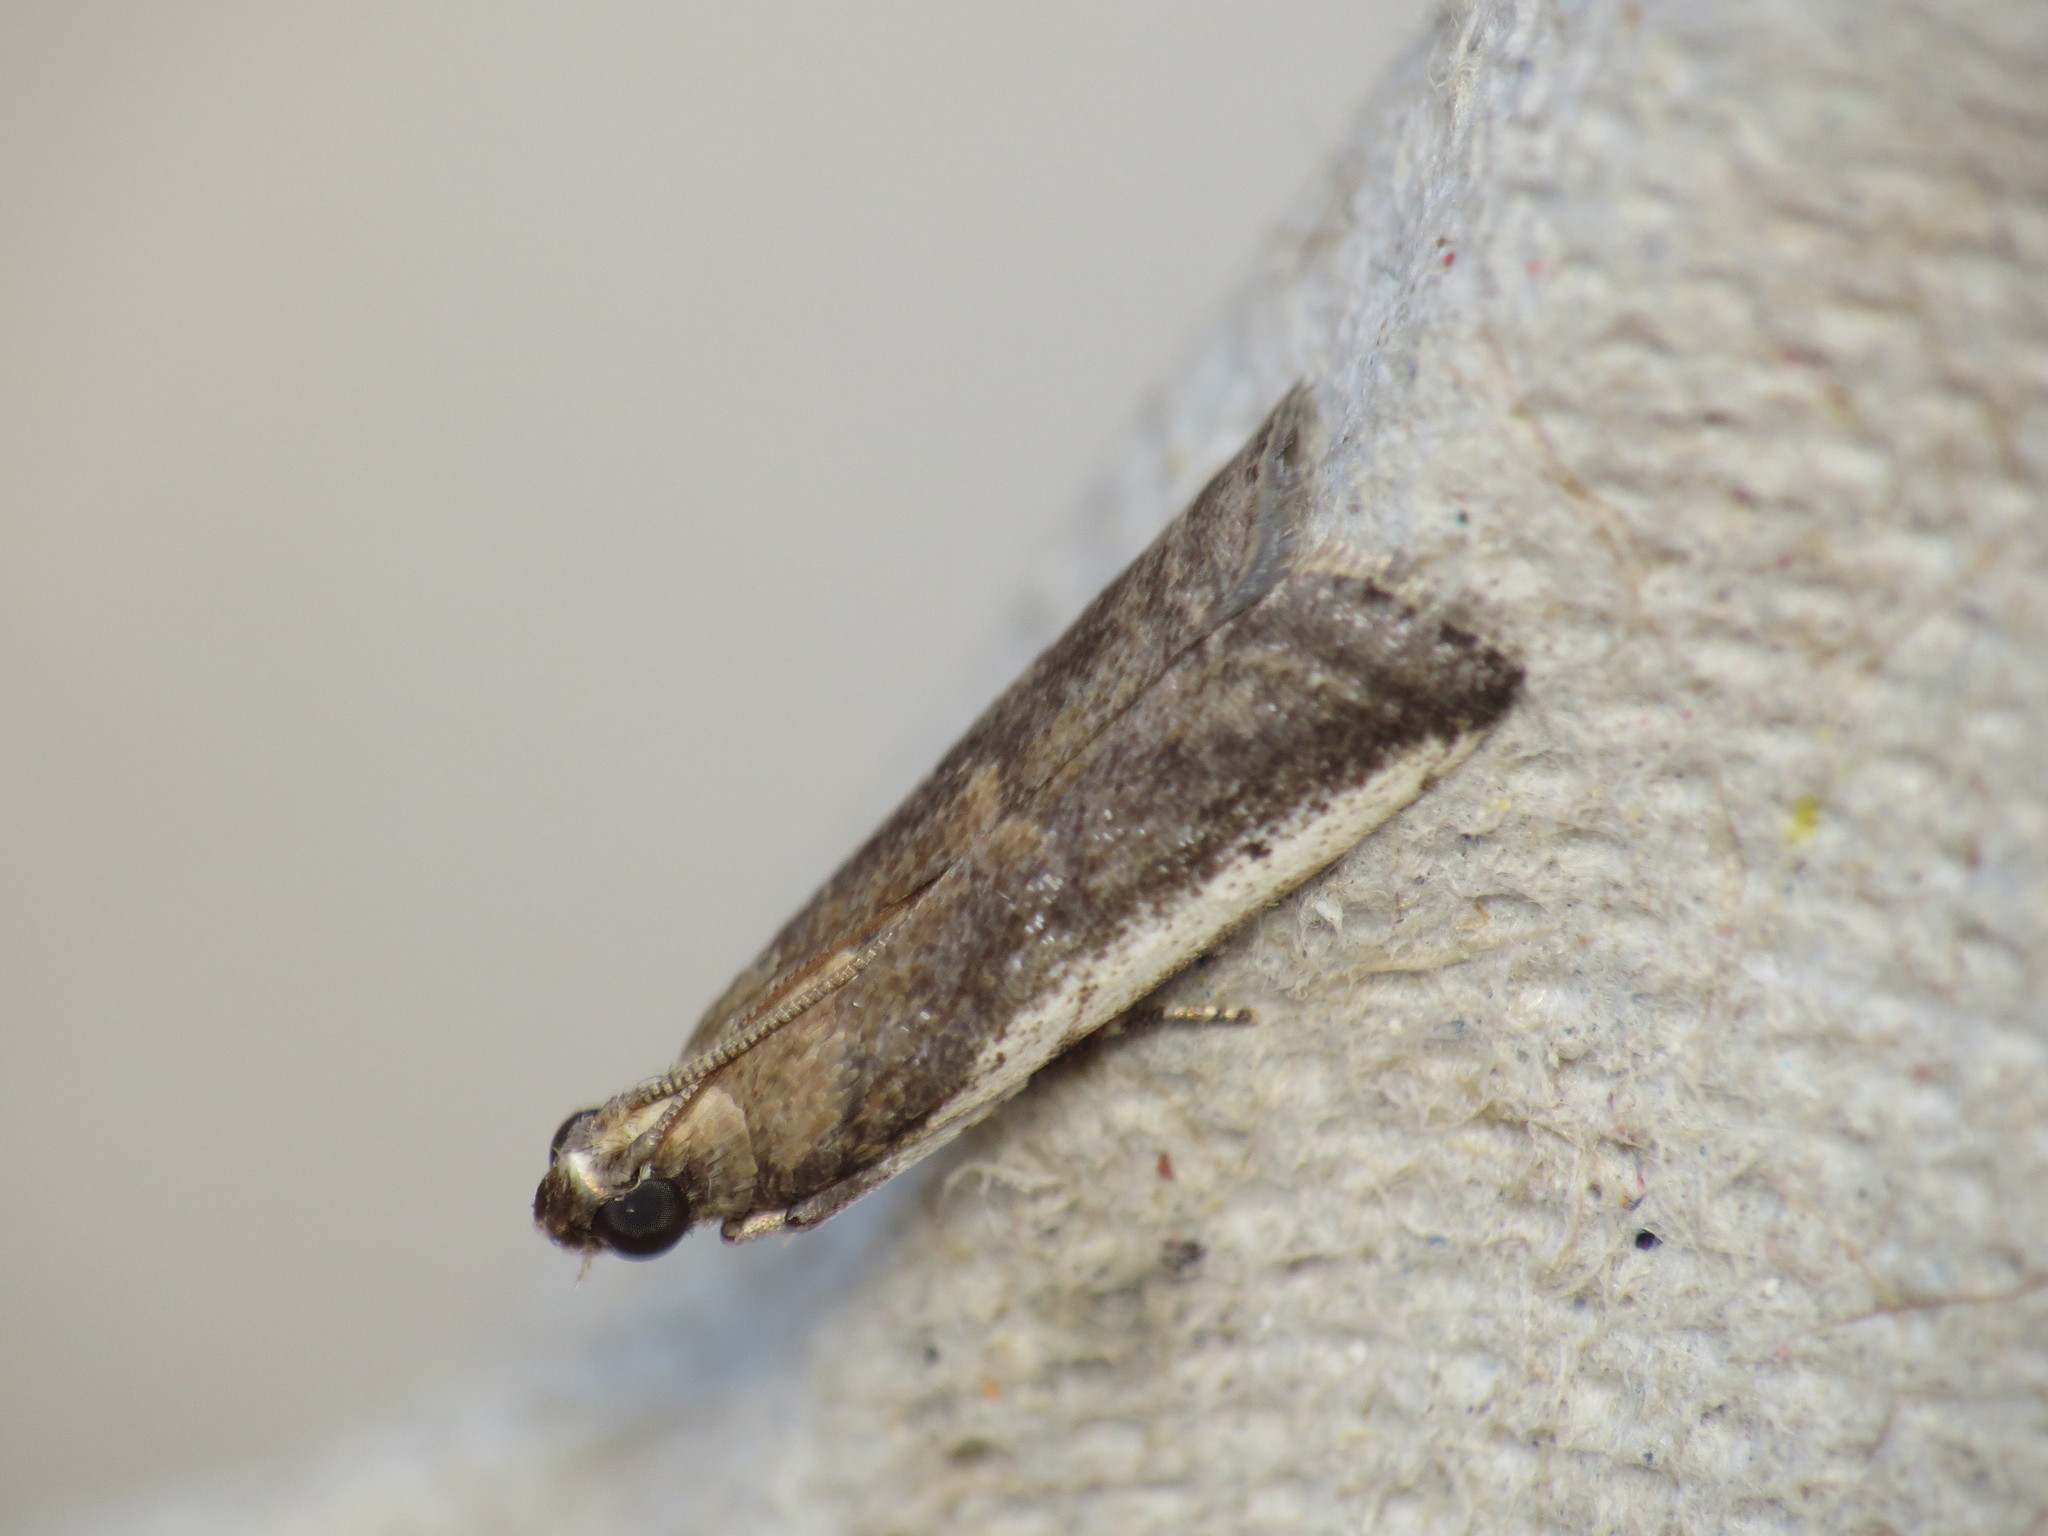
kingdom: Animalia
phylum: Arthropoda
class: Insecta
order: Lepidoptera
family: Pyralidae
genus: Assara
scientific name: Assara subarcuella
